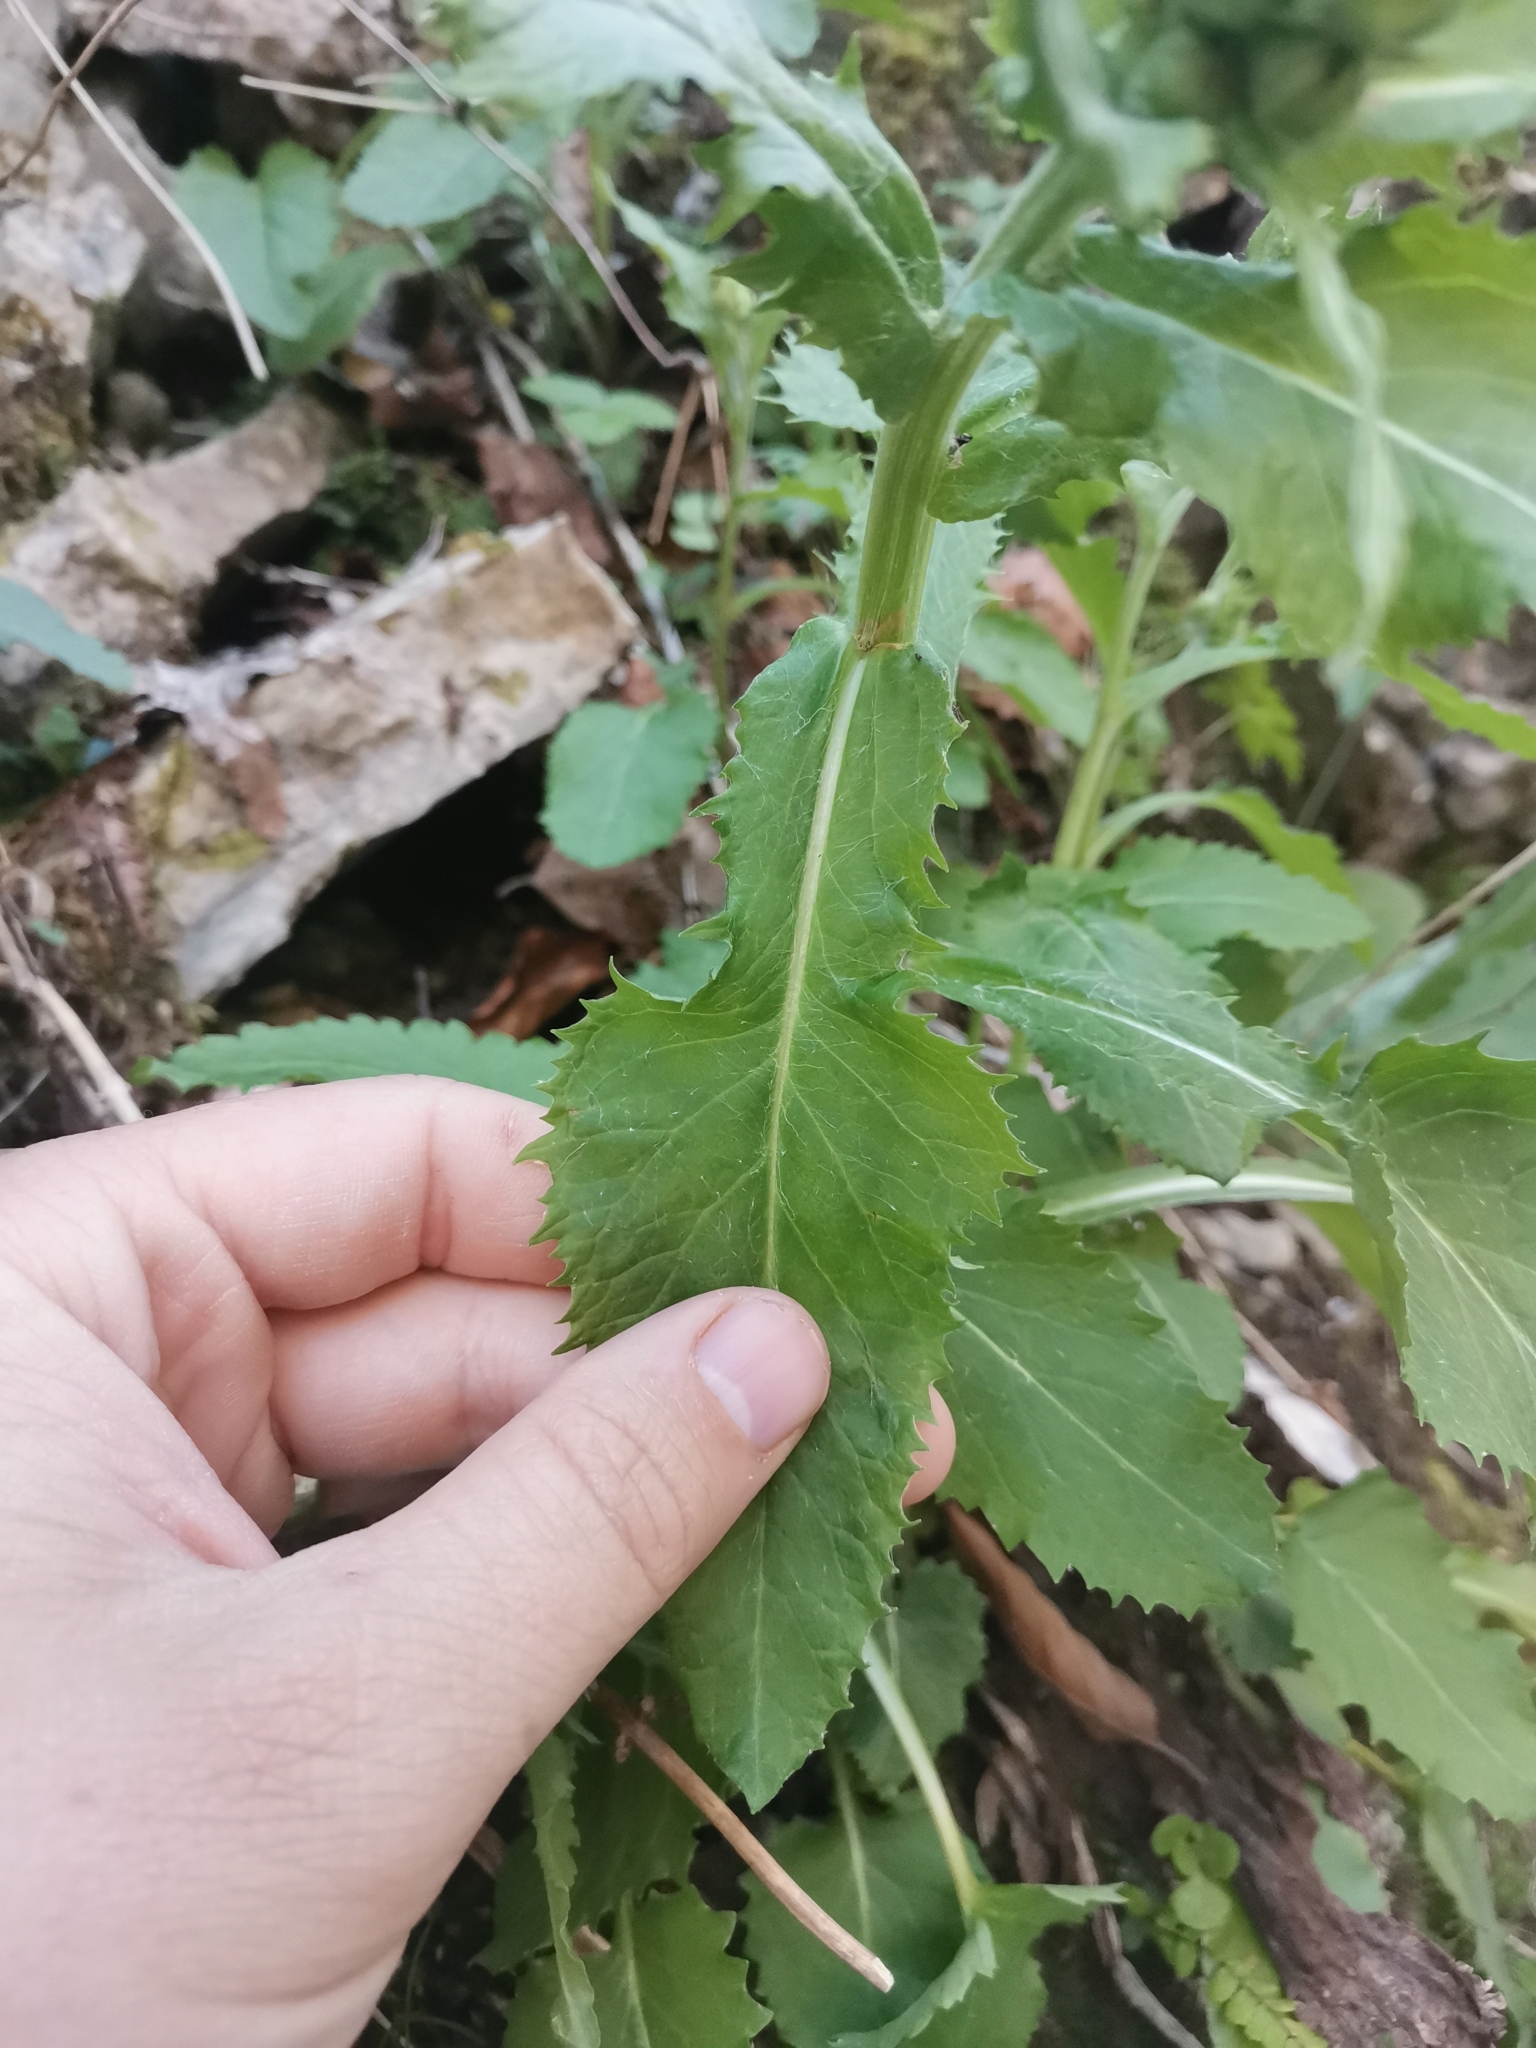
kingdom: Plantae
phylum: Tracheophyta
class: Magnoliopsida
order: Asterales
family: Asteraceae
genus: Tephroseris
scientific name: Tephroseris crispa
